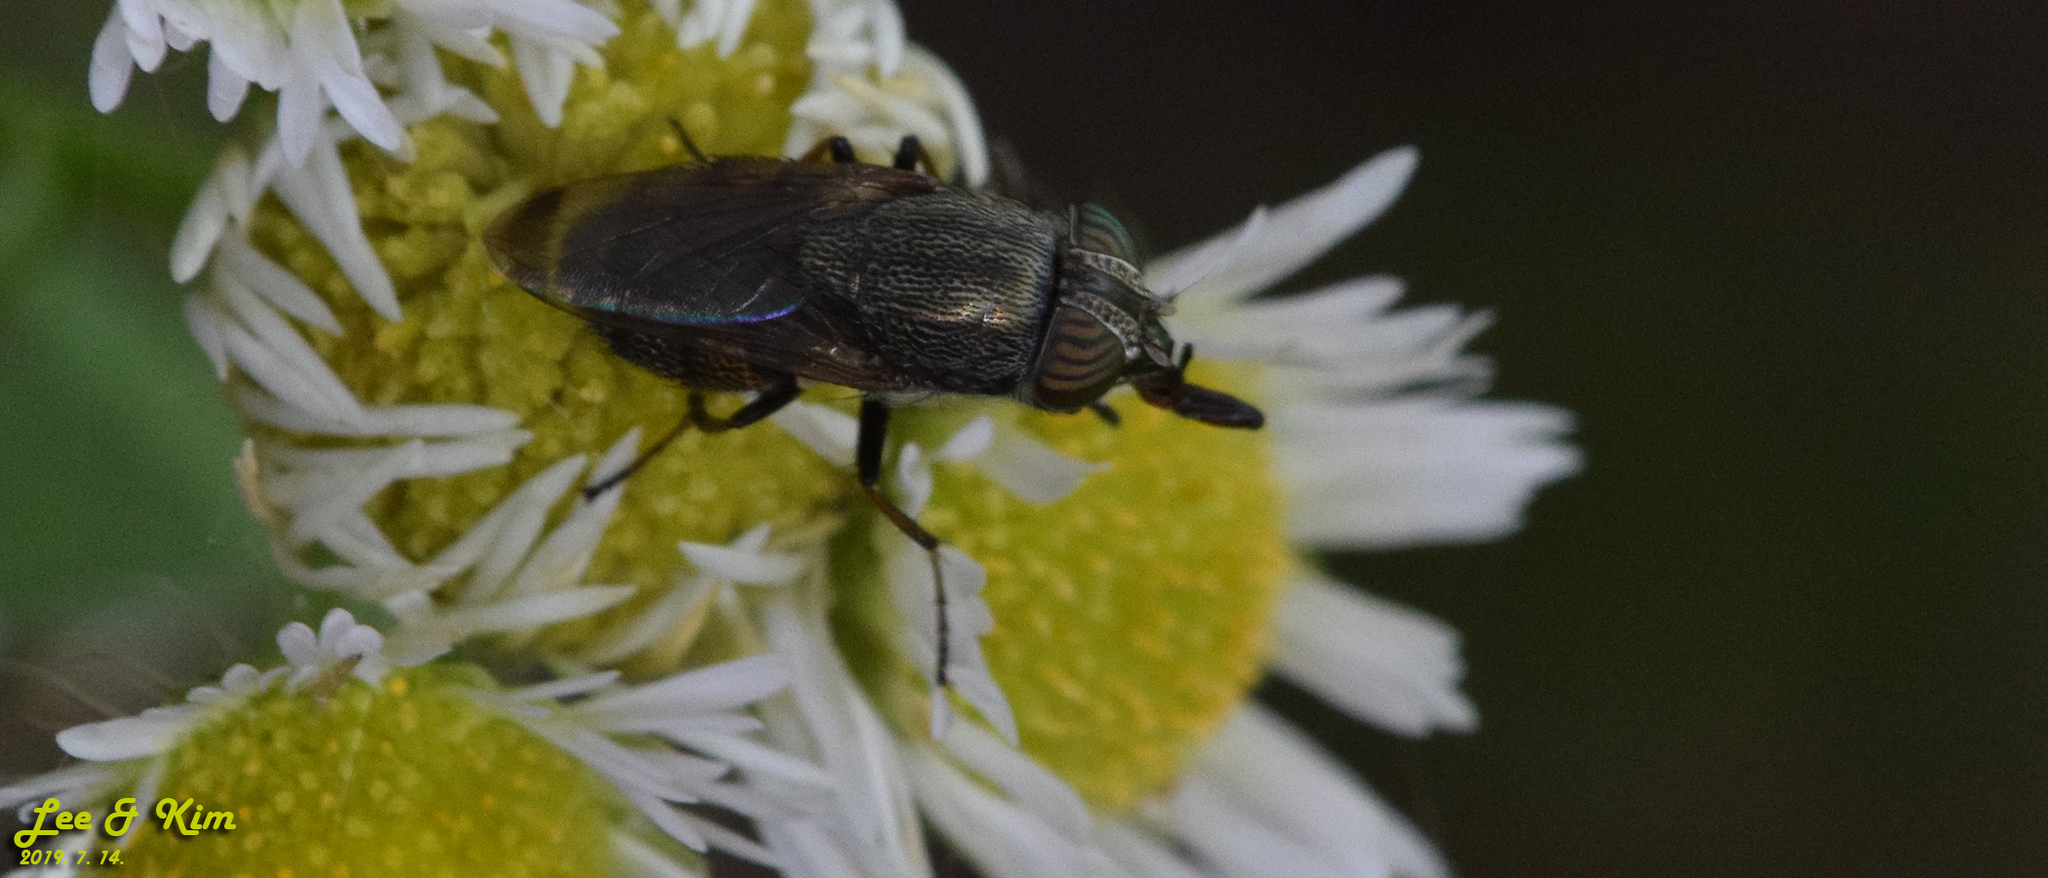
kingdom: Animalia
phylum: Arthropoda
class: Insecta
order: Diptera
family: Calliphoridae
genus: Rhinia
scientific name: Rhinia obsoleta
